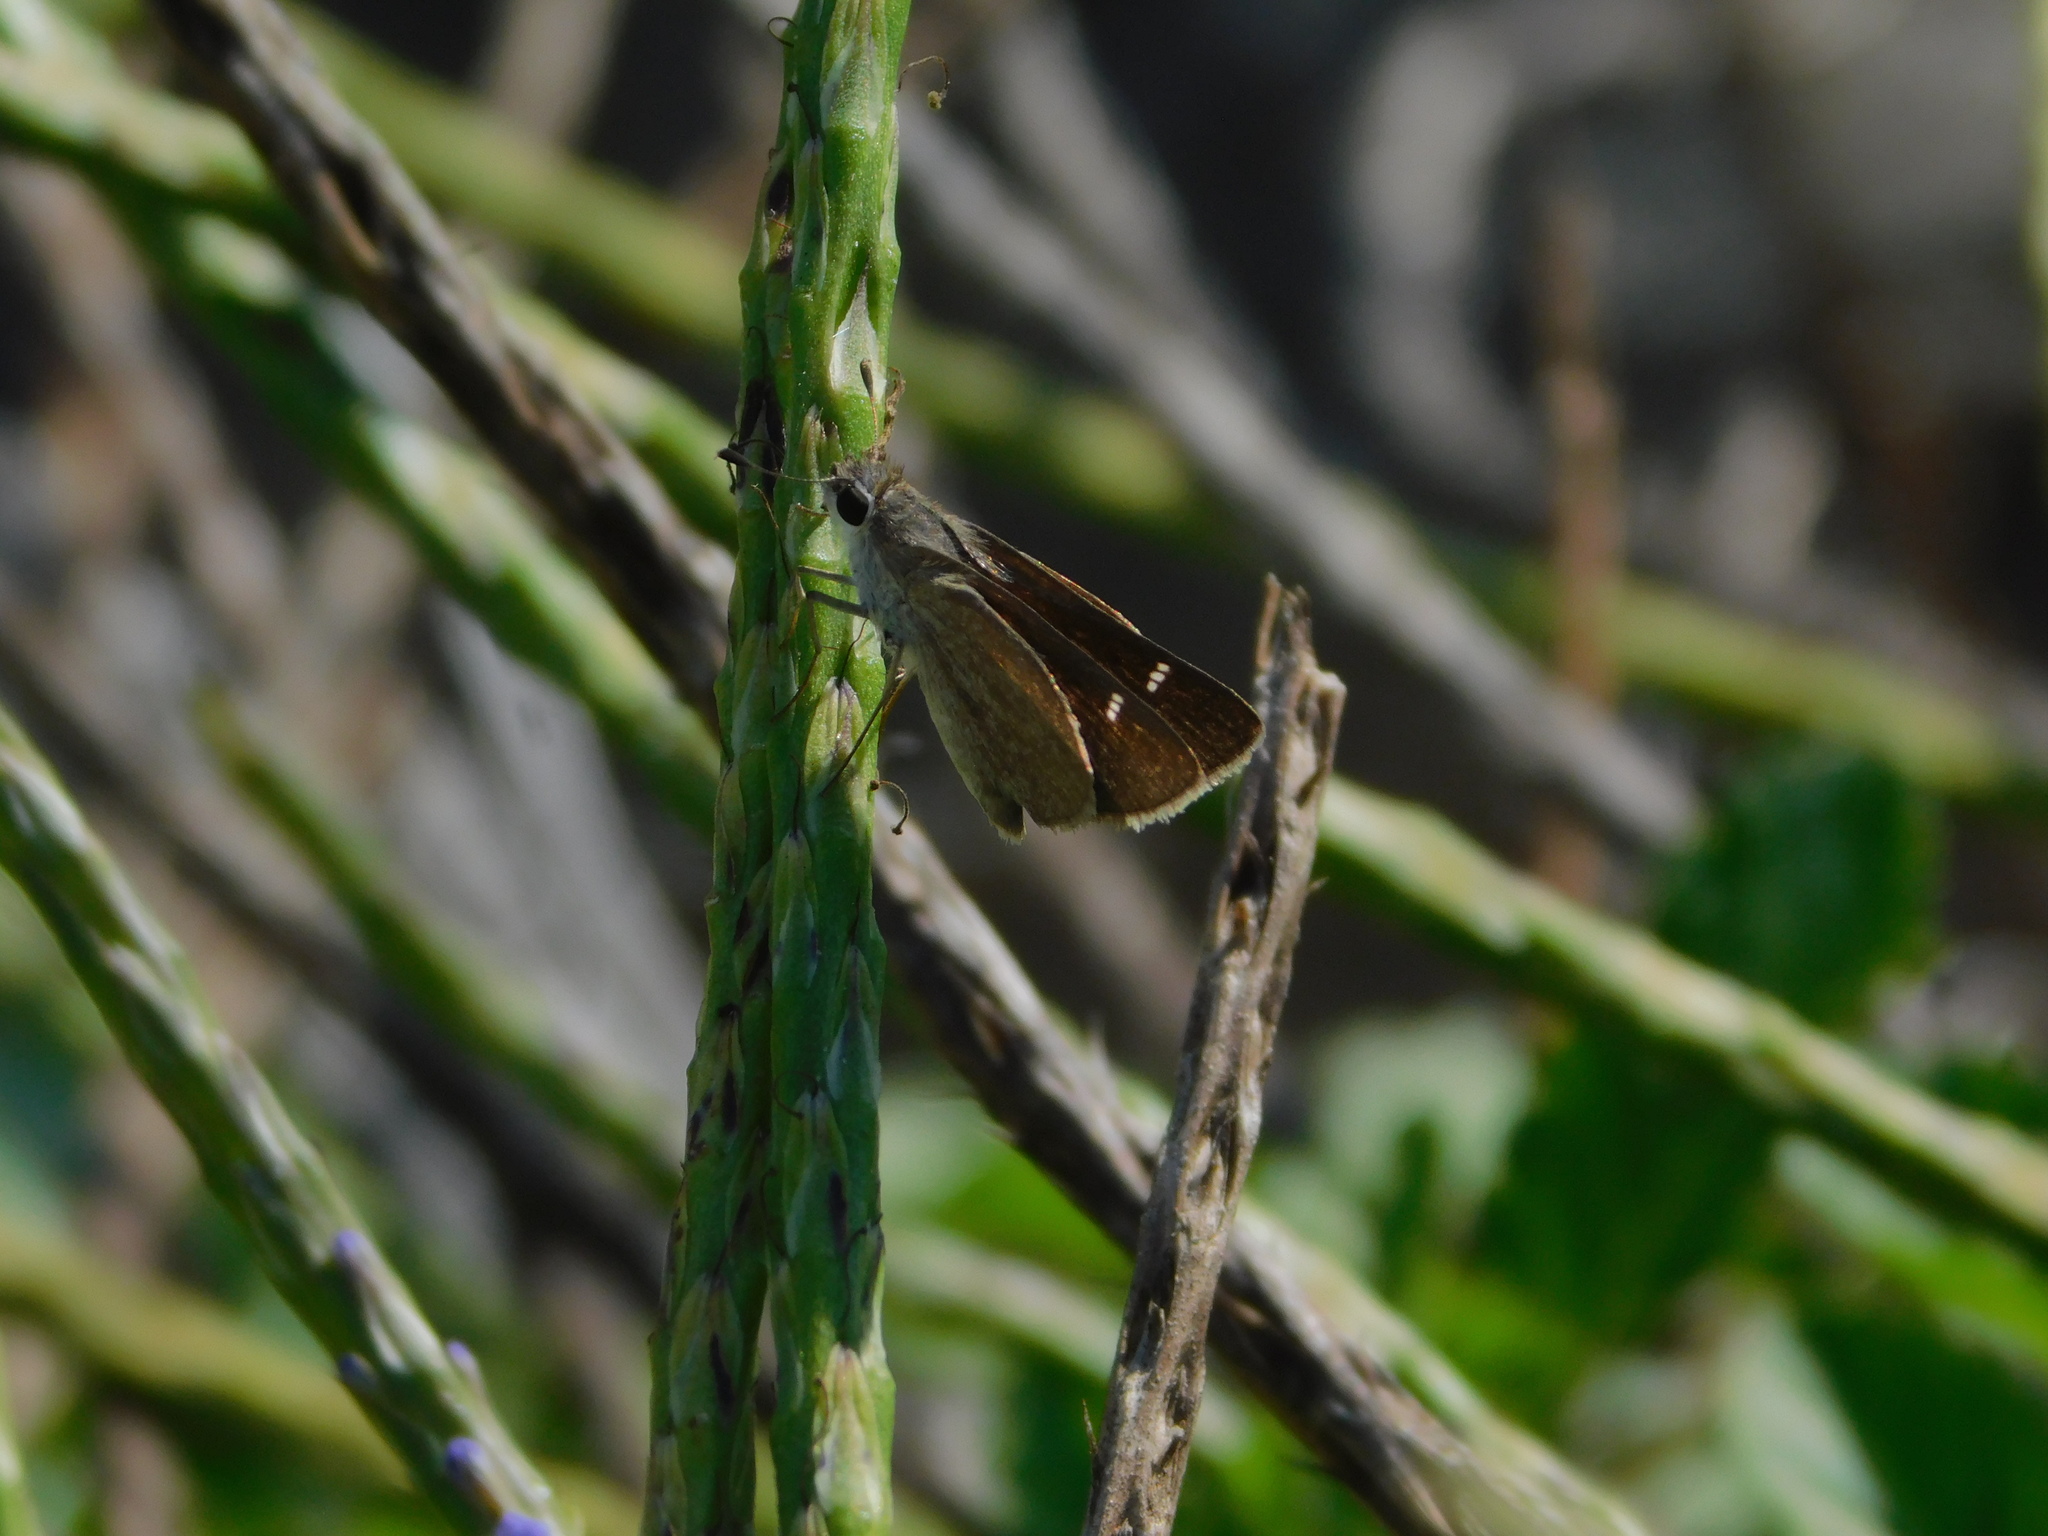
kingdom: Animalia
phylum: Arthropoda
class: Insecta
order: Lepidoptera
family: Hesperiidae
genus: Lerodea
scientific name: Lerodea eufala
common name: Eufala skipper
